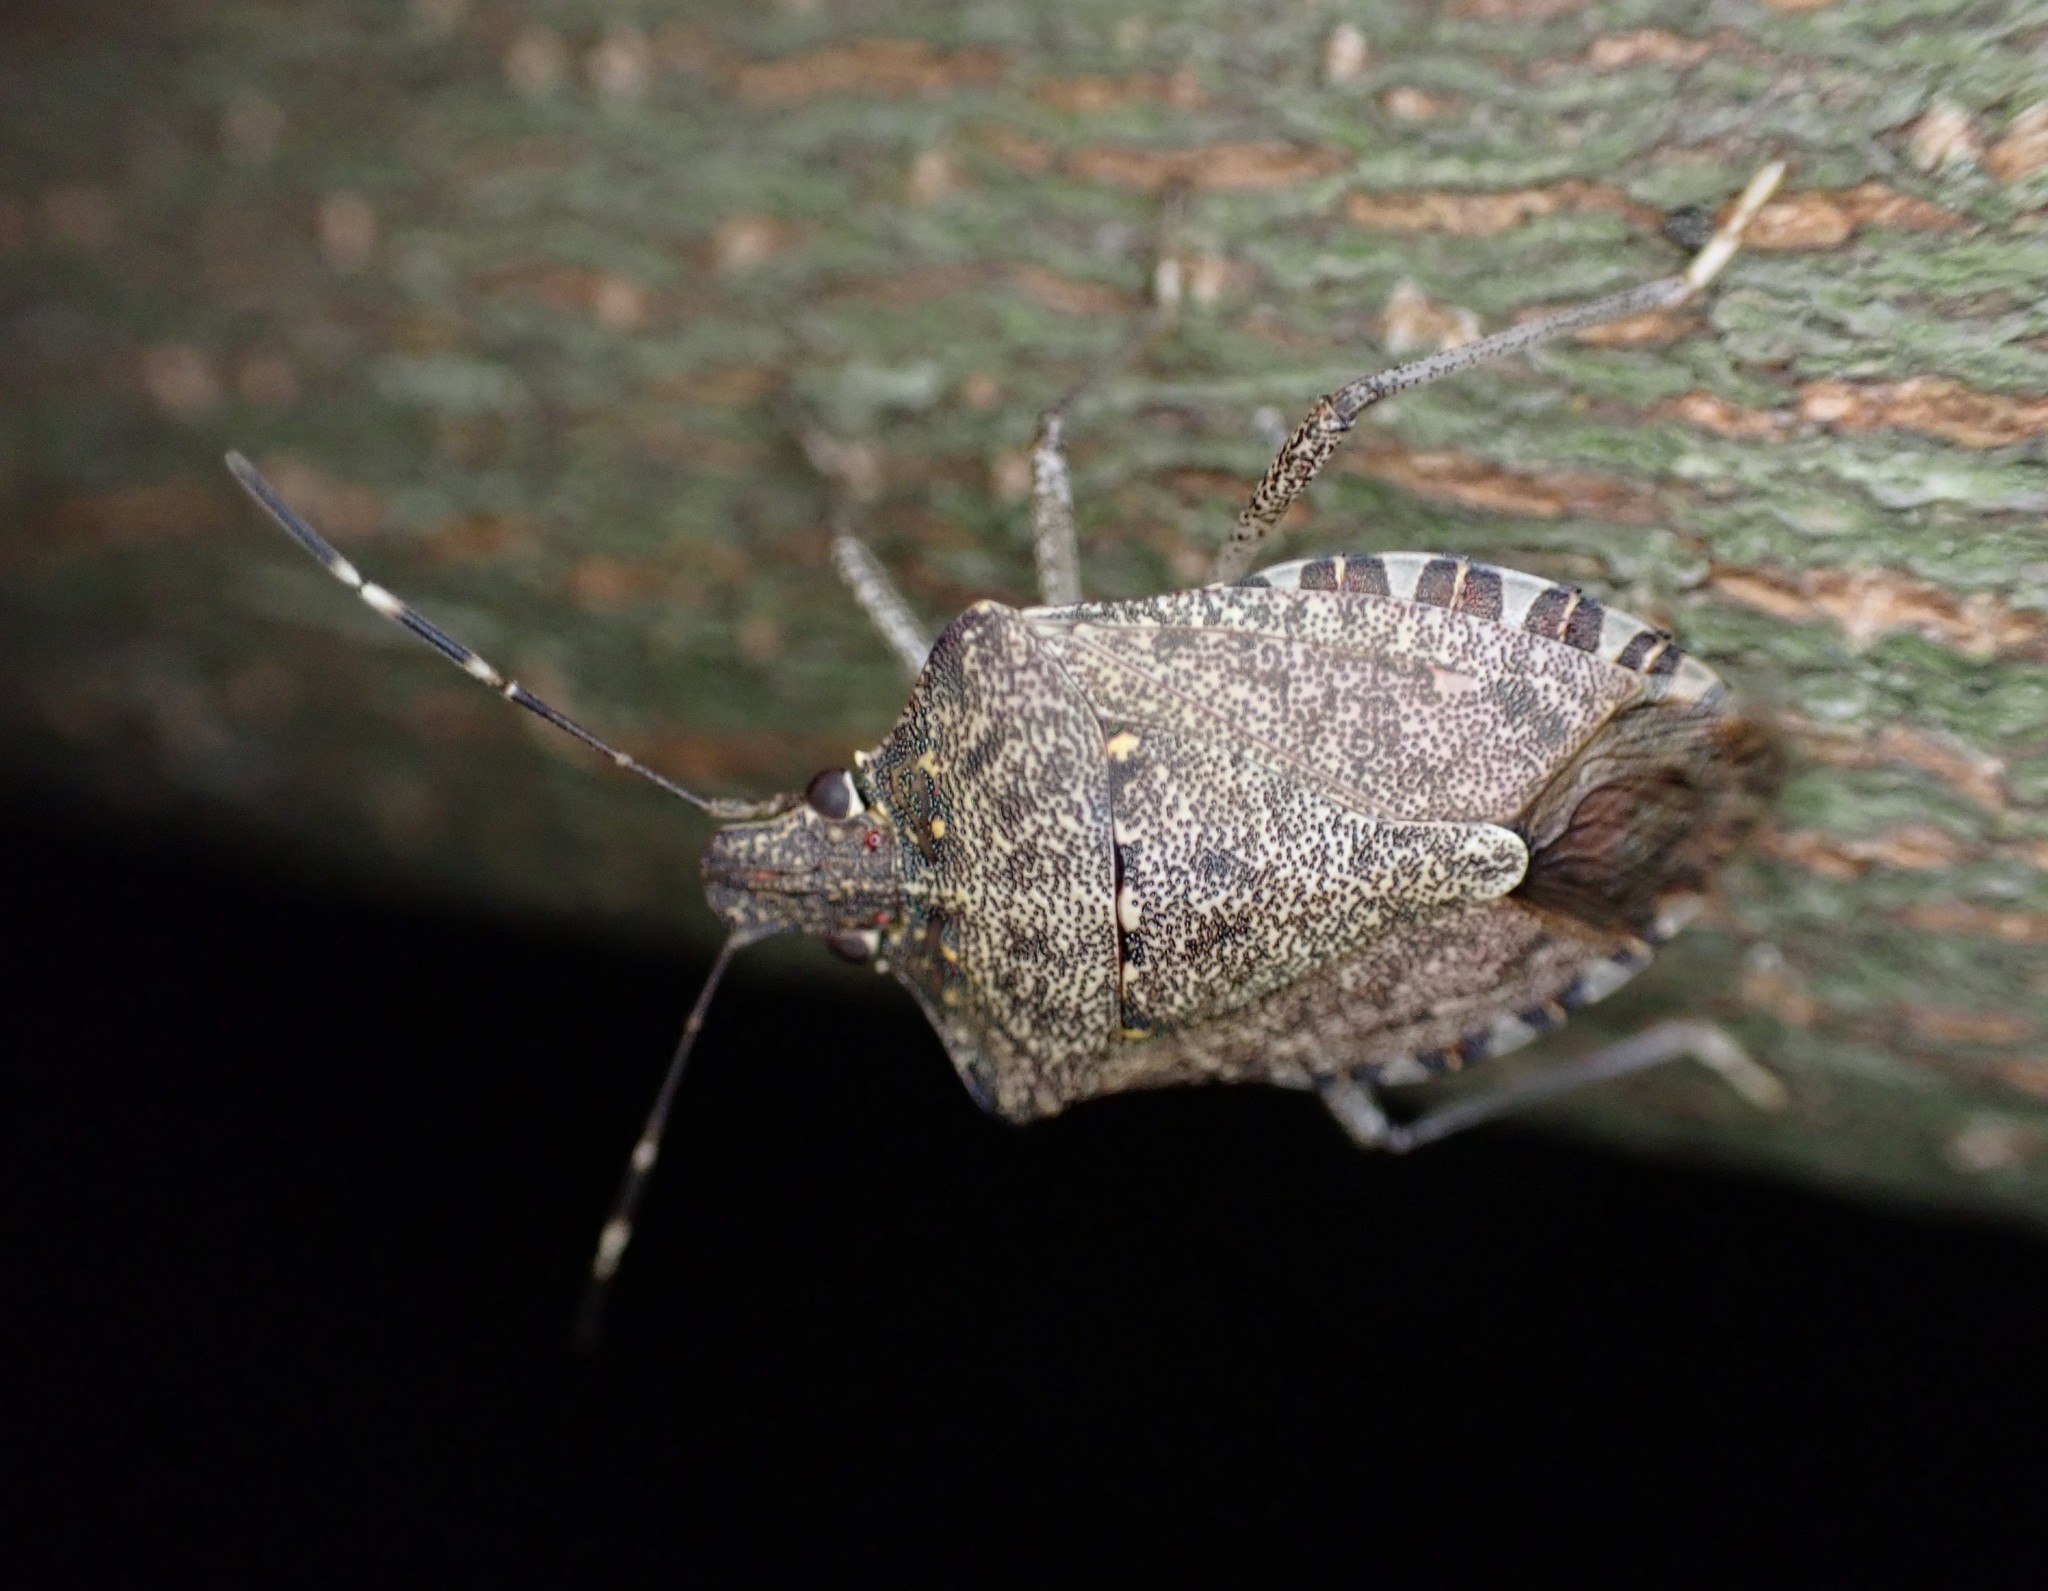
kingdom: Animalia
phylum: Arthropoda
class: Insecta
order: Hemiptera
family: Pentatomidae
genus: Halyomorpha
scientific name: Halyomorpha halys
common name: Brown marmorated stink bug
